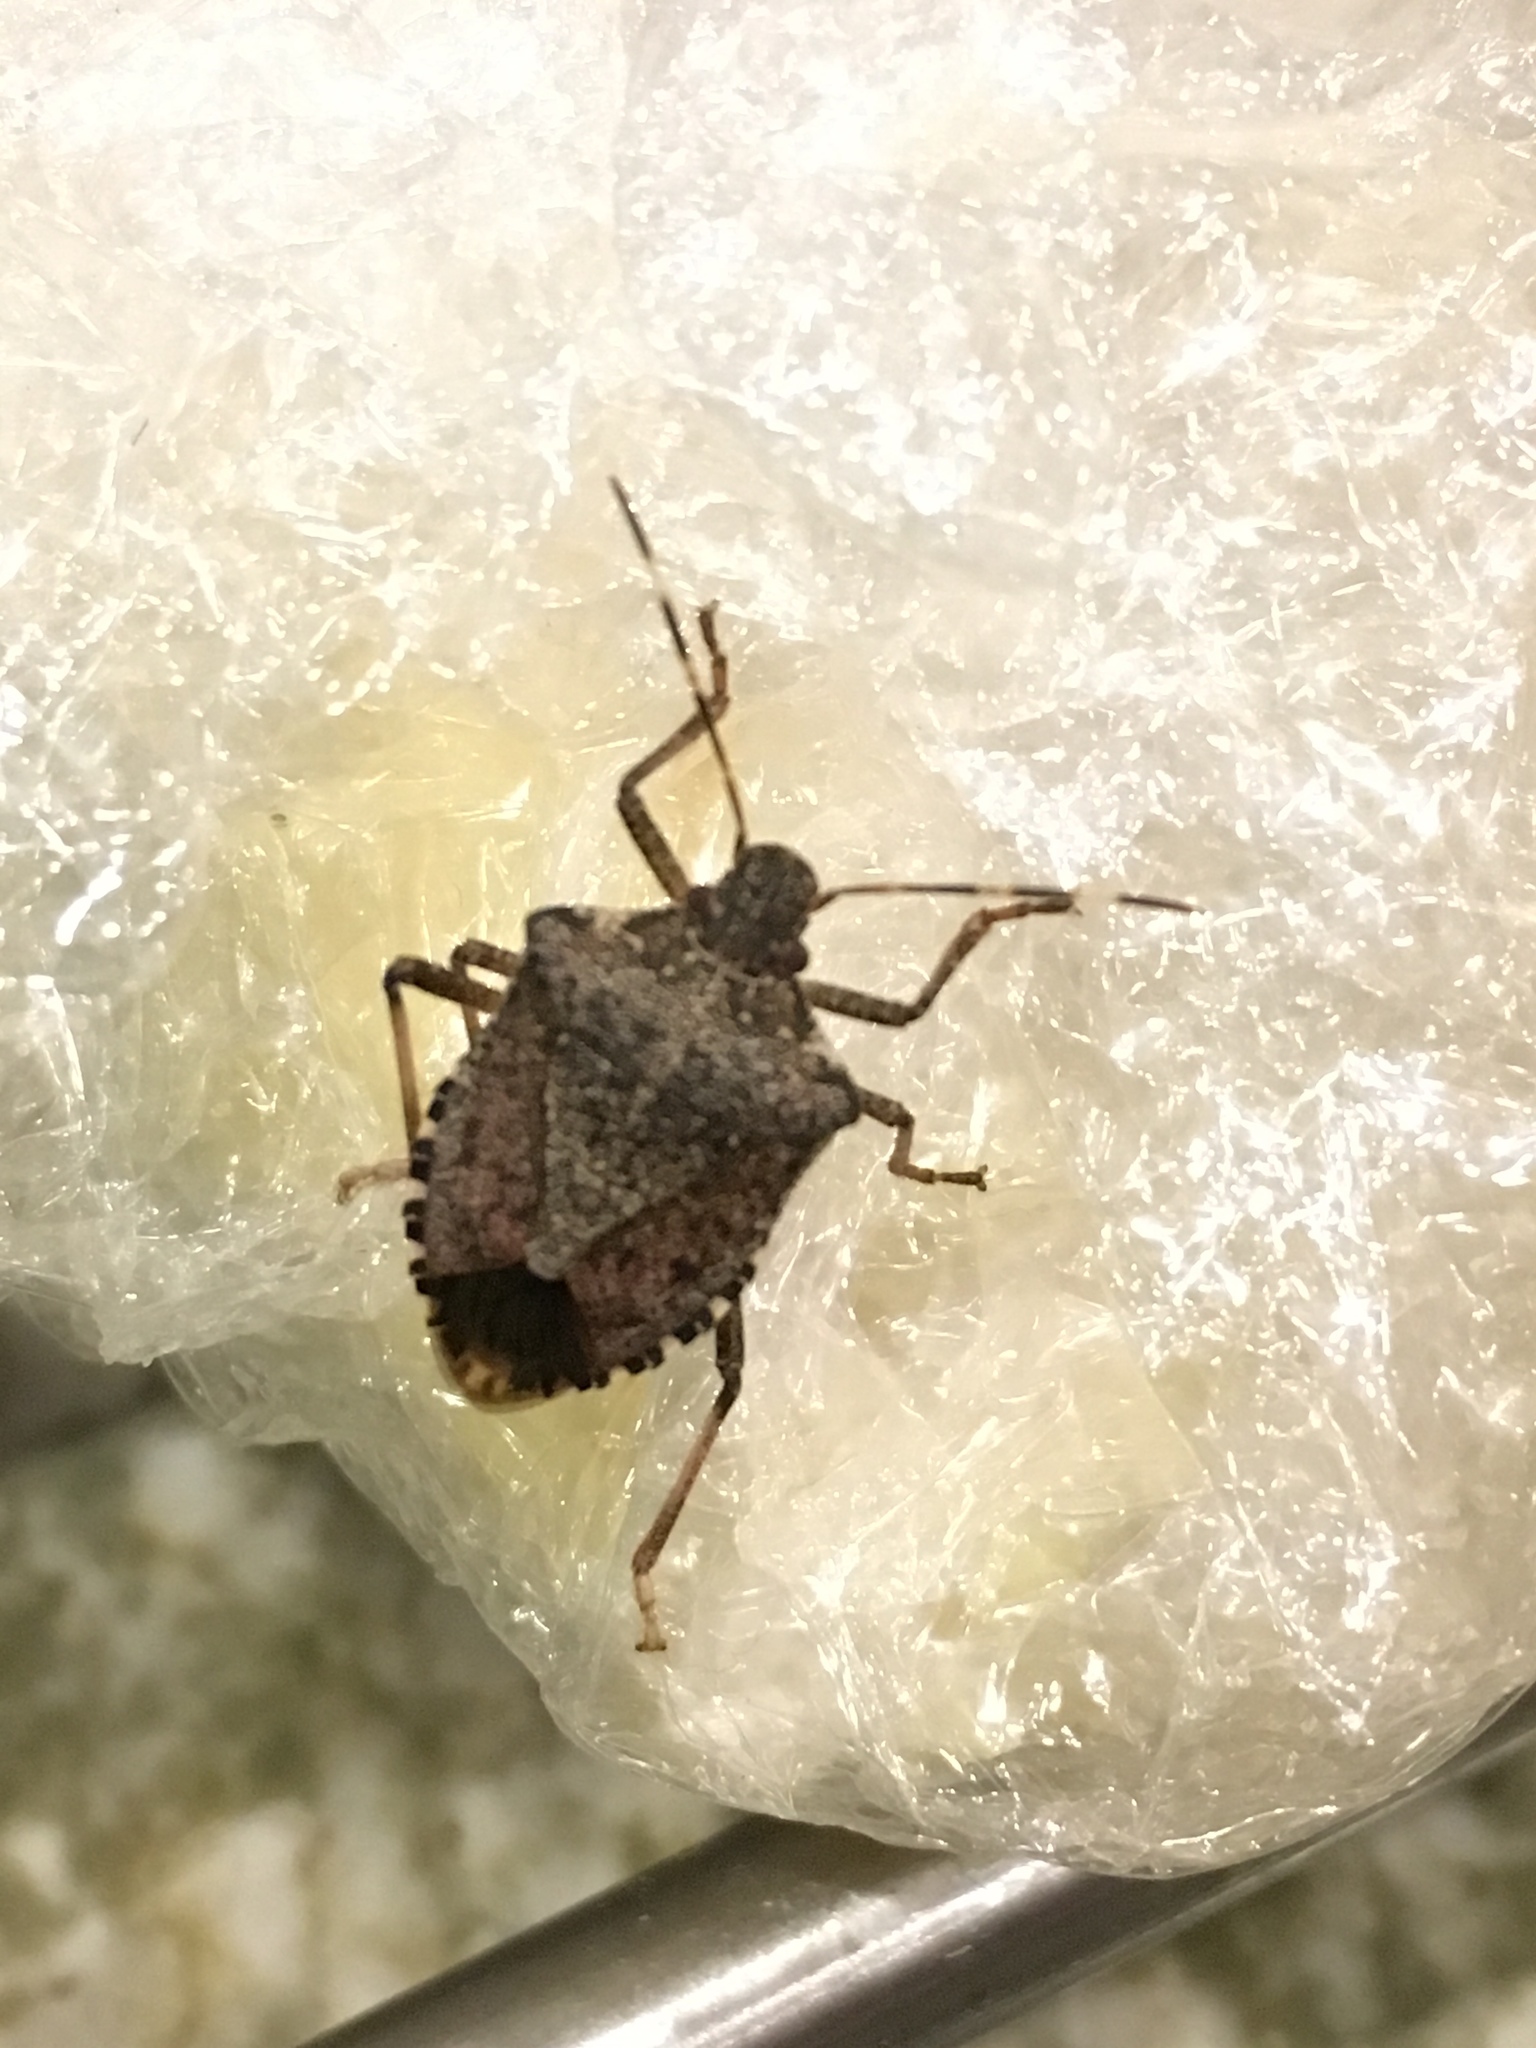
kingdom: Animalia
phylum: Arthropoda
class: Insecta
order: Hemiptera
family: Pentatomidae
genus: Halyomorpha
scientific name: Halyomorpha halys
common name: Brown marmorated stink bug
